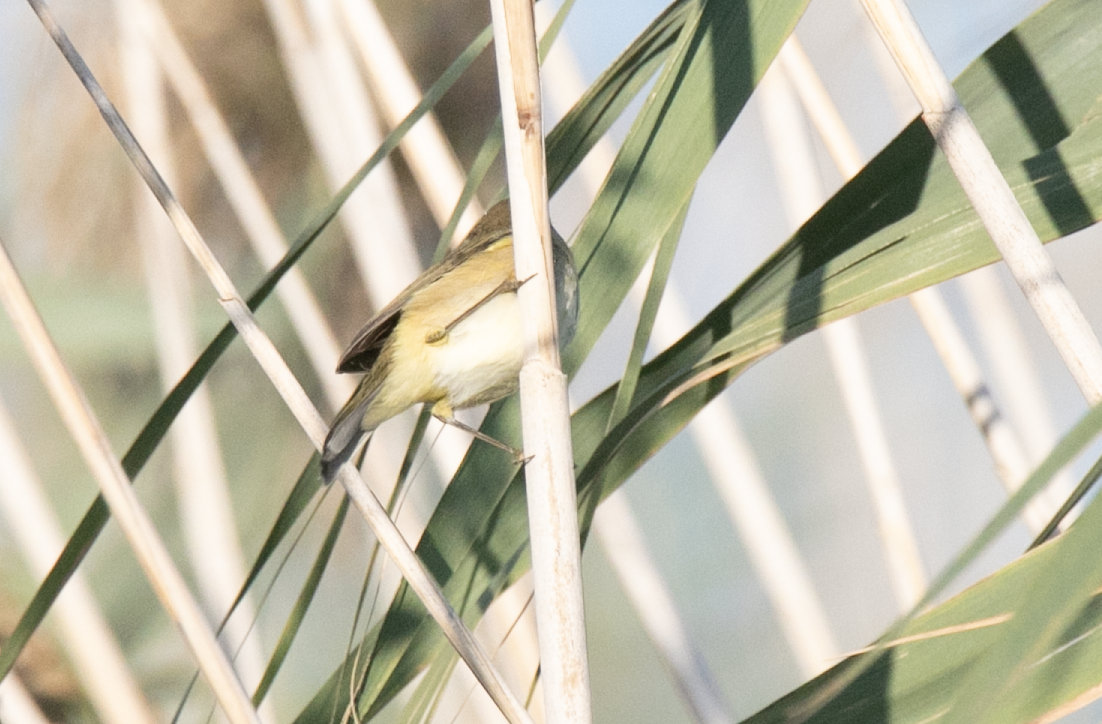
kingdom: Animalia
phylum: Chordata
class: Aves
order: Passeriformes
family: Phylloscopidae
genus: Phylloscopus
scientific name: Phylloscopus collybita
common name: Common chiffchaff
